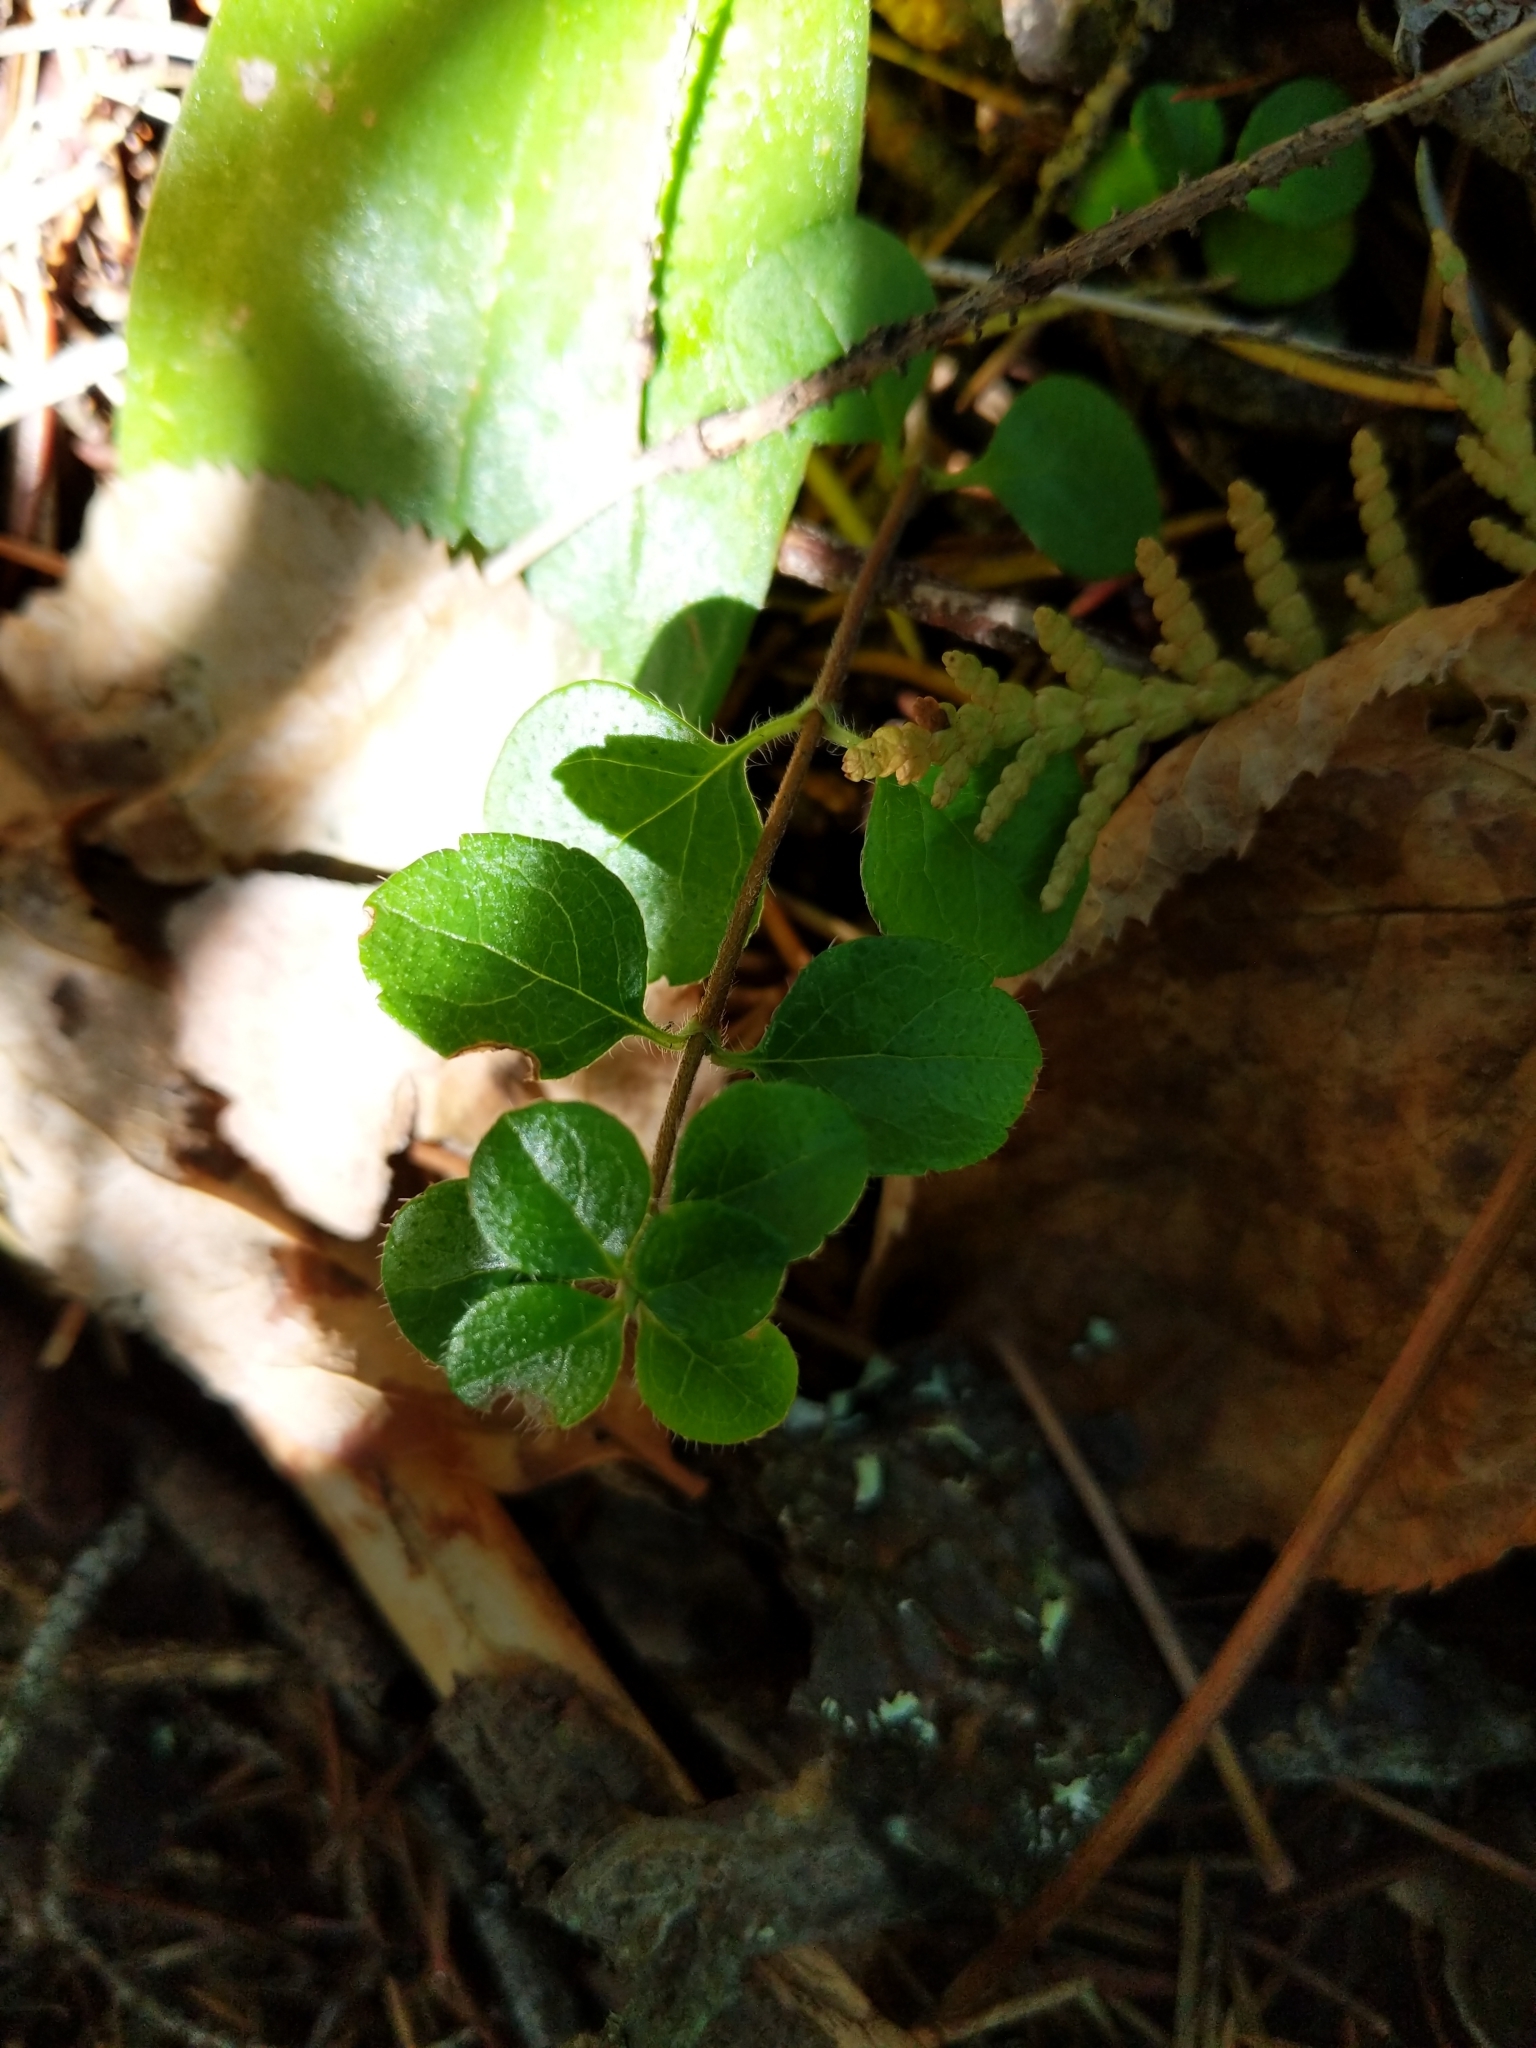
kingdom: Plantae
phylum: Tracheophyta
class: Magnoliopsida
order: Dipsacales
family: Caprifoliaceae
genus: Linnaea
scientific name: Linnaea borealis
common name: Twinflower
